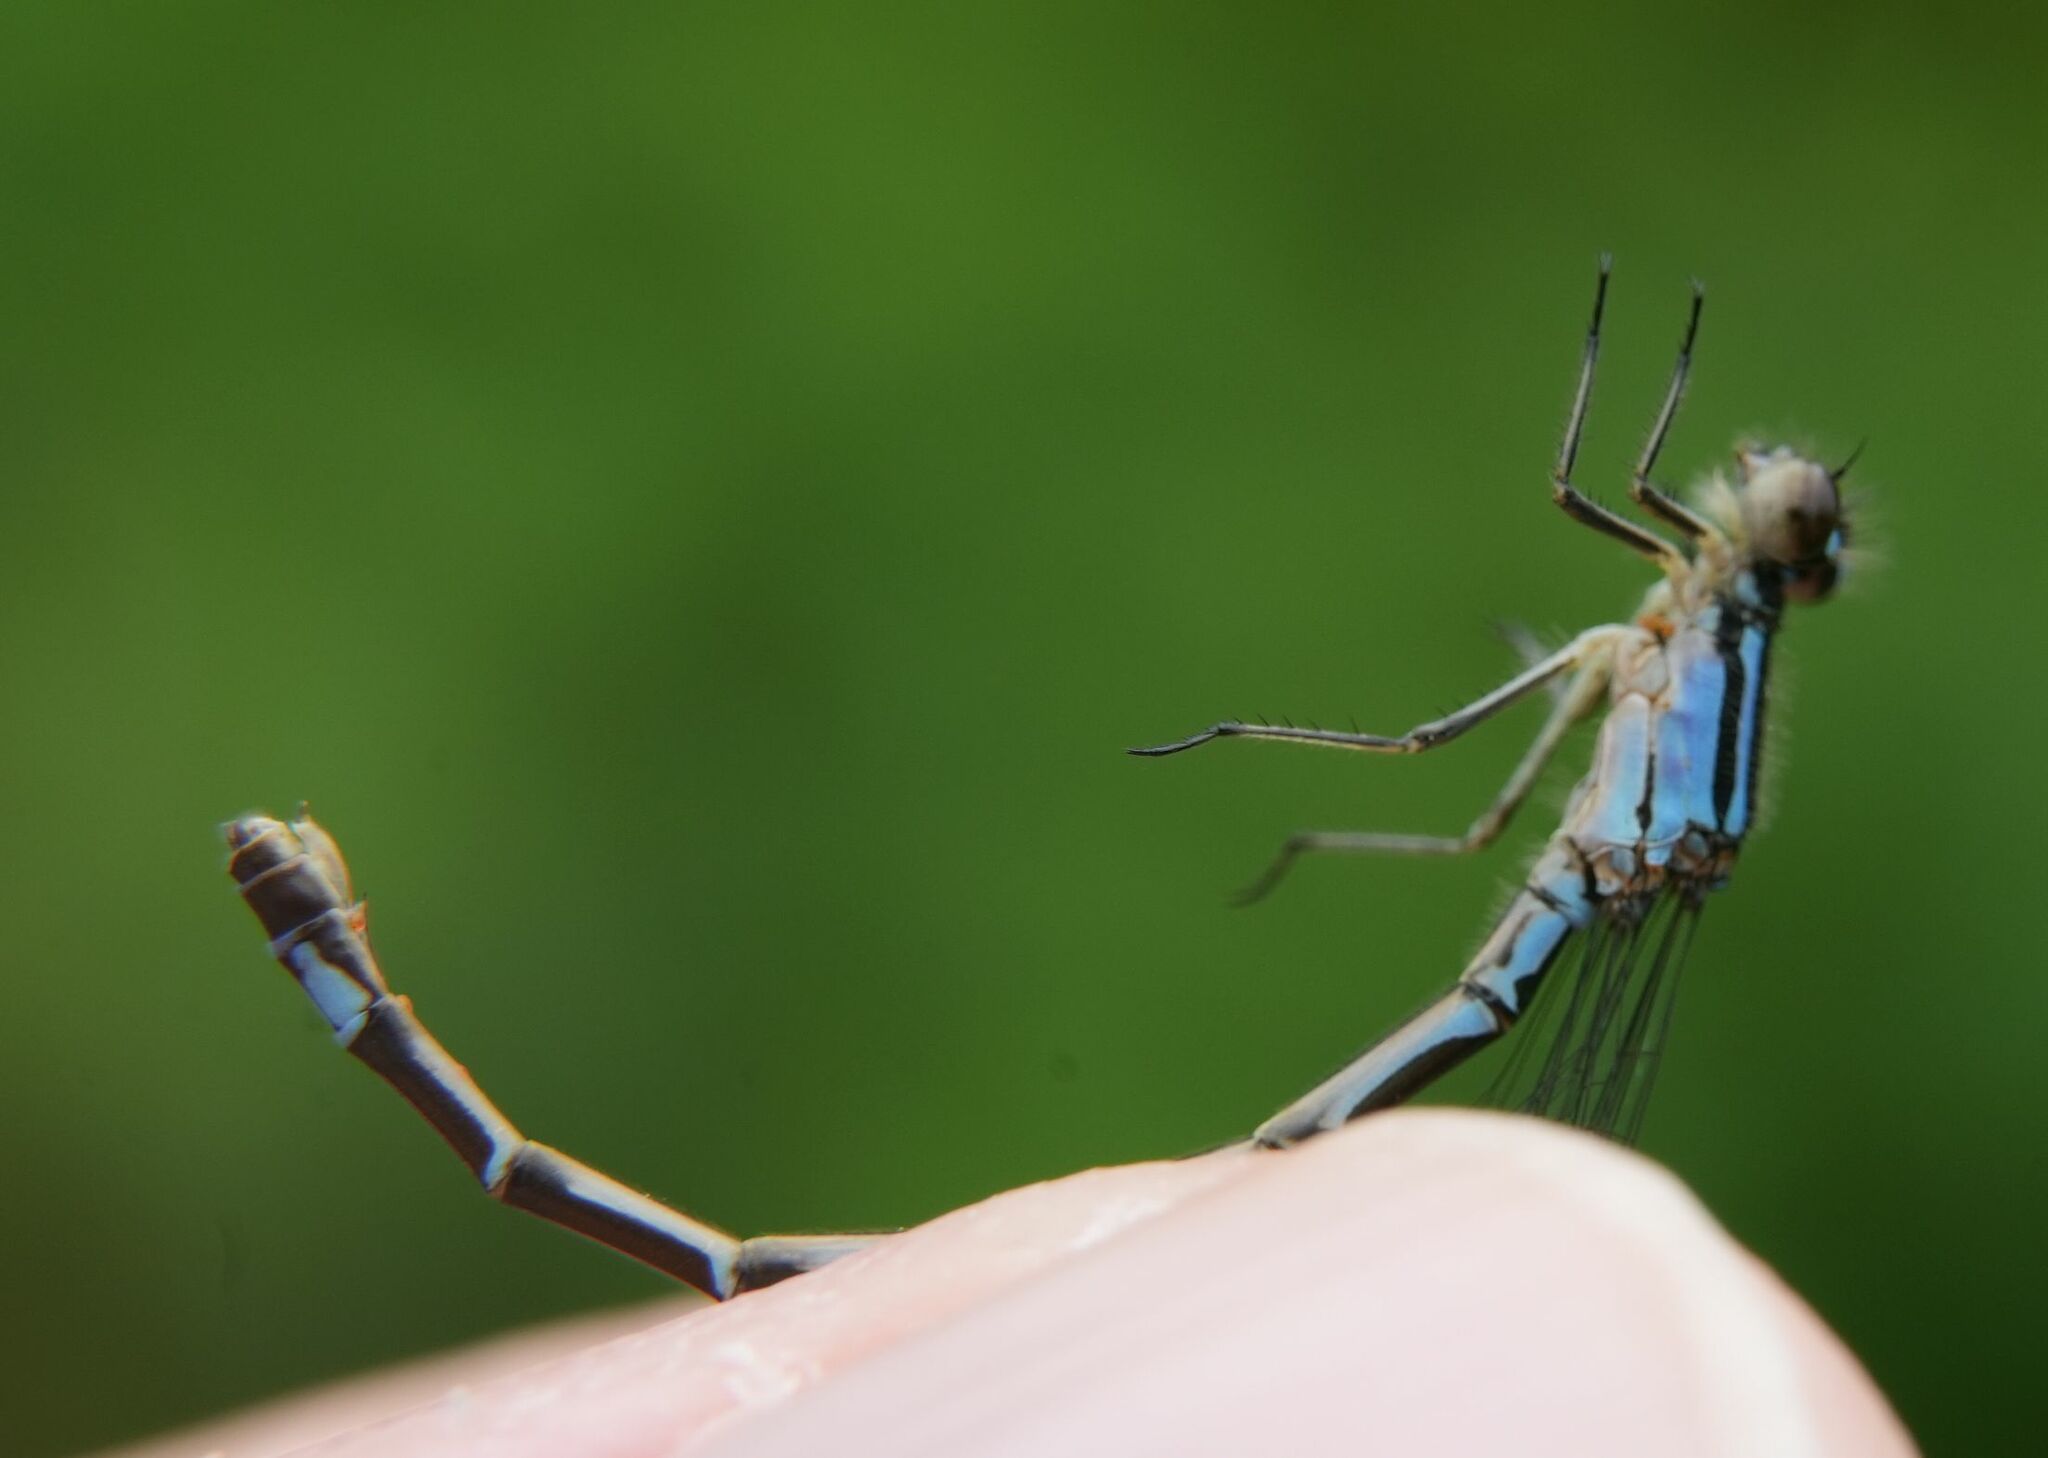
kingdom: Animalia
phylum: Arthropoda
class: Insecta
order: Odonata
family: Coenagrionidae
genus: Enallagma
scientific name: Enallagma geminatum
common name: Skimming bluet
